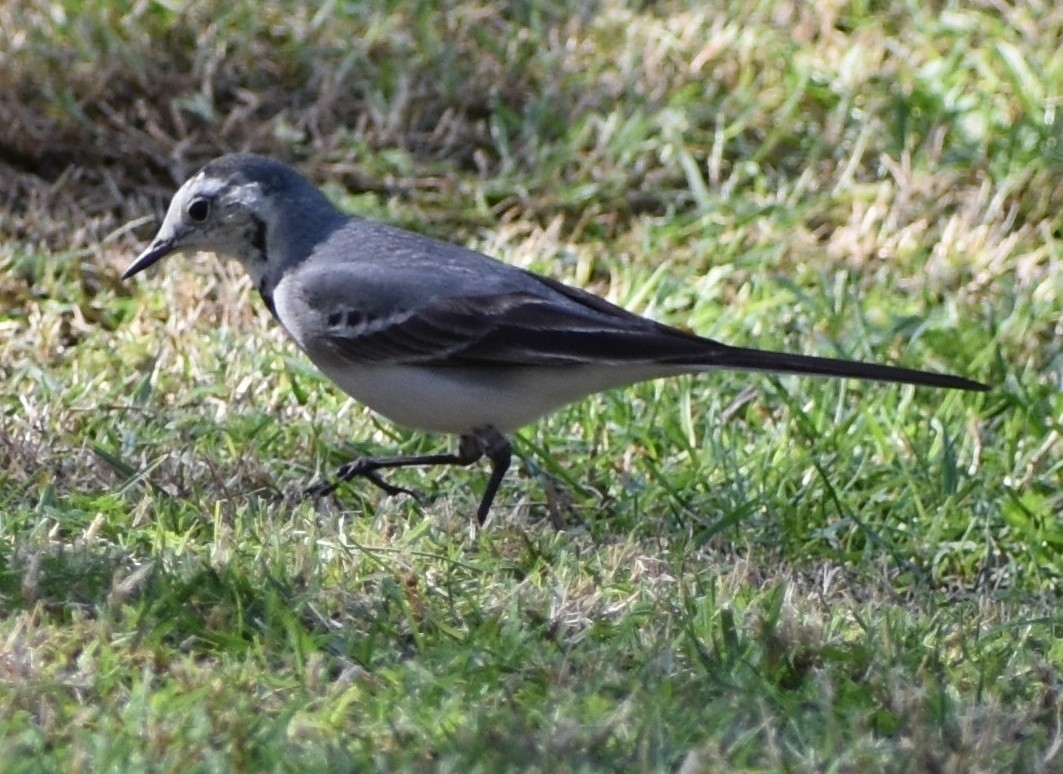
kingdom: Animalia
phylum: Chordata
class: Aves
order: Passeriformes
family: Motacillidae
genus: Motacilla
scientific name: Motacilla alba
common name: White wagtail
